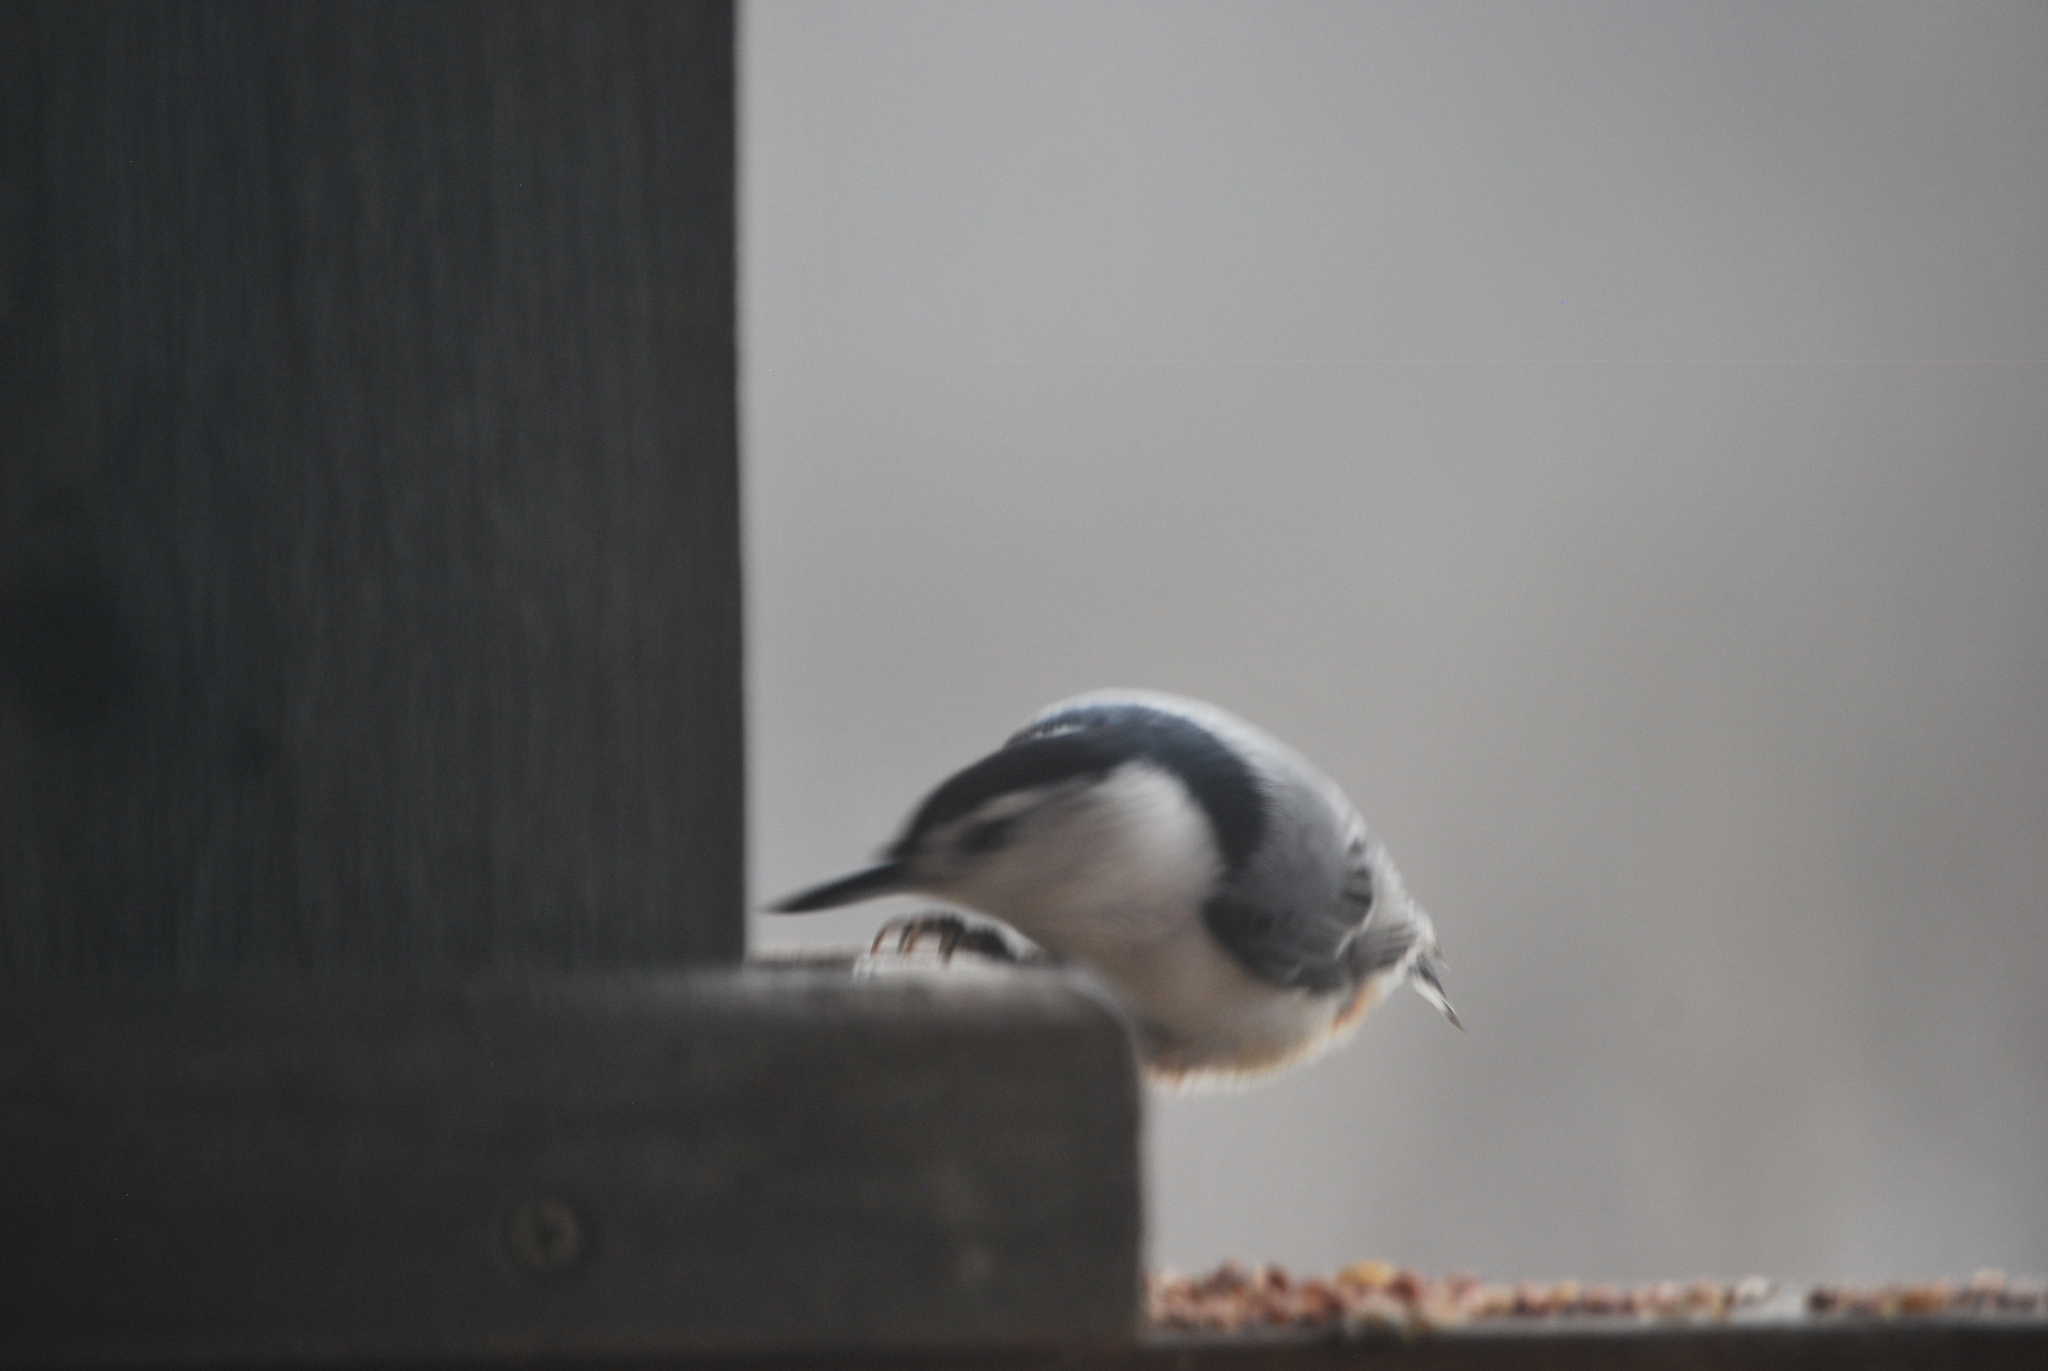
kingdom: Animalia
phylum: Chordata
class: Aves
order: Passeriformes
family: Sittidae
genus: Sitta
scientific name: Sitta carolinensis
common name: White-breasted nuthatch
